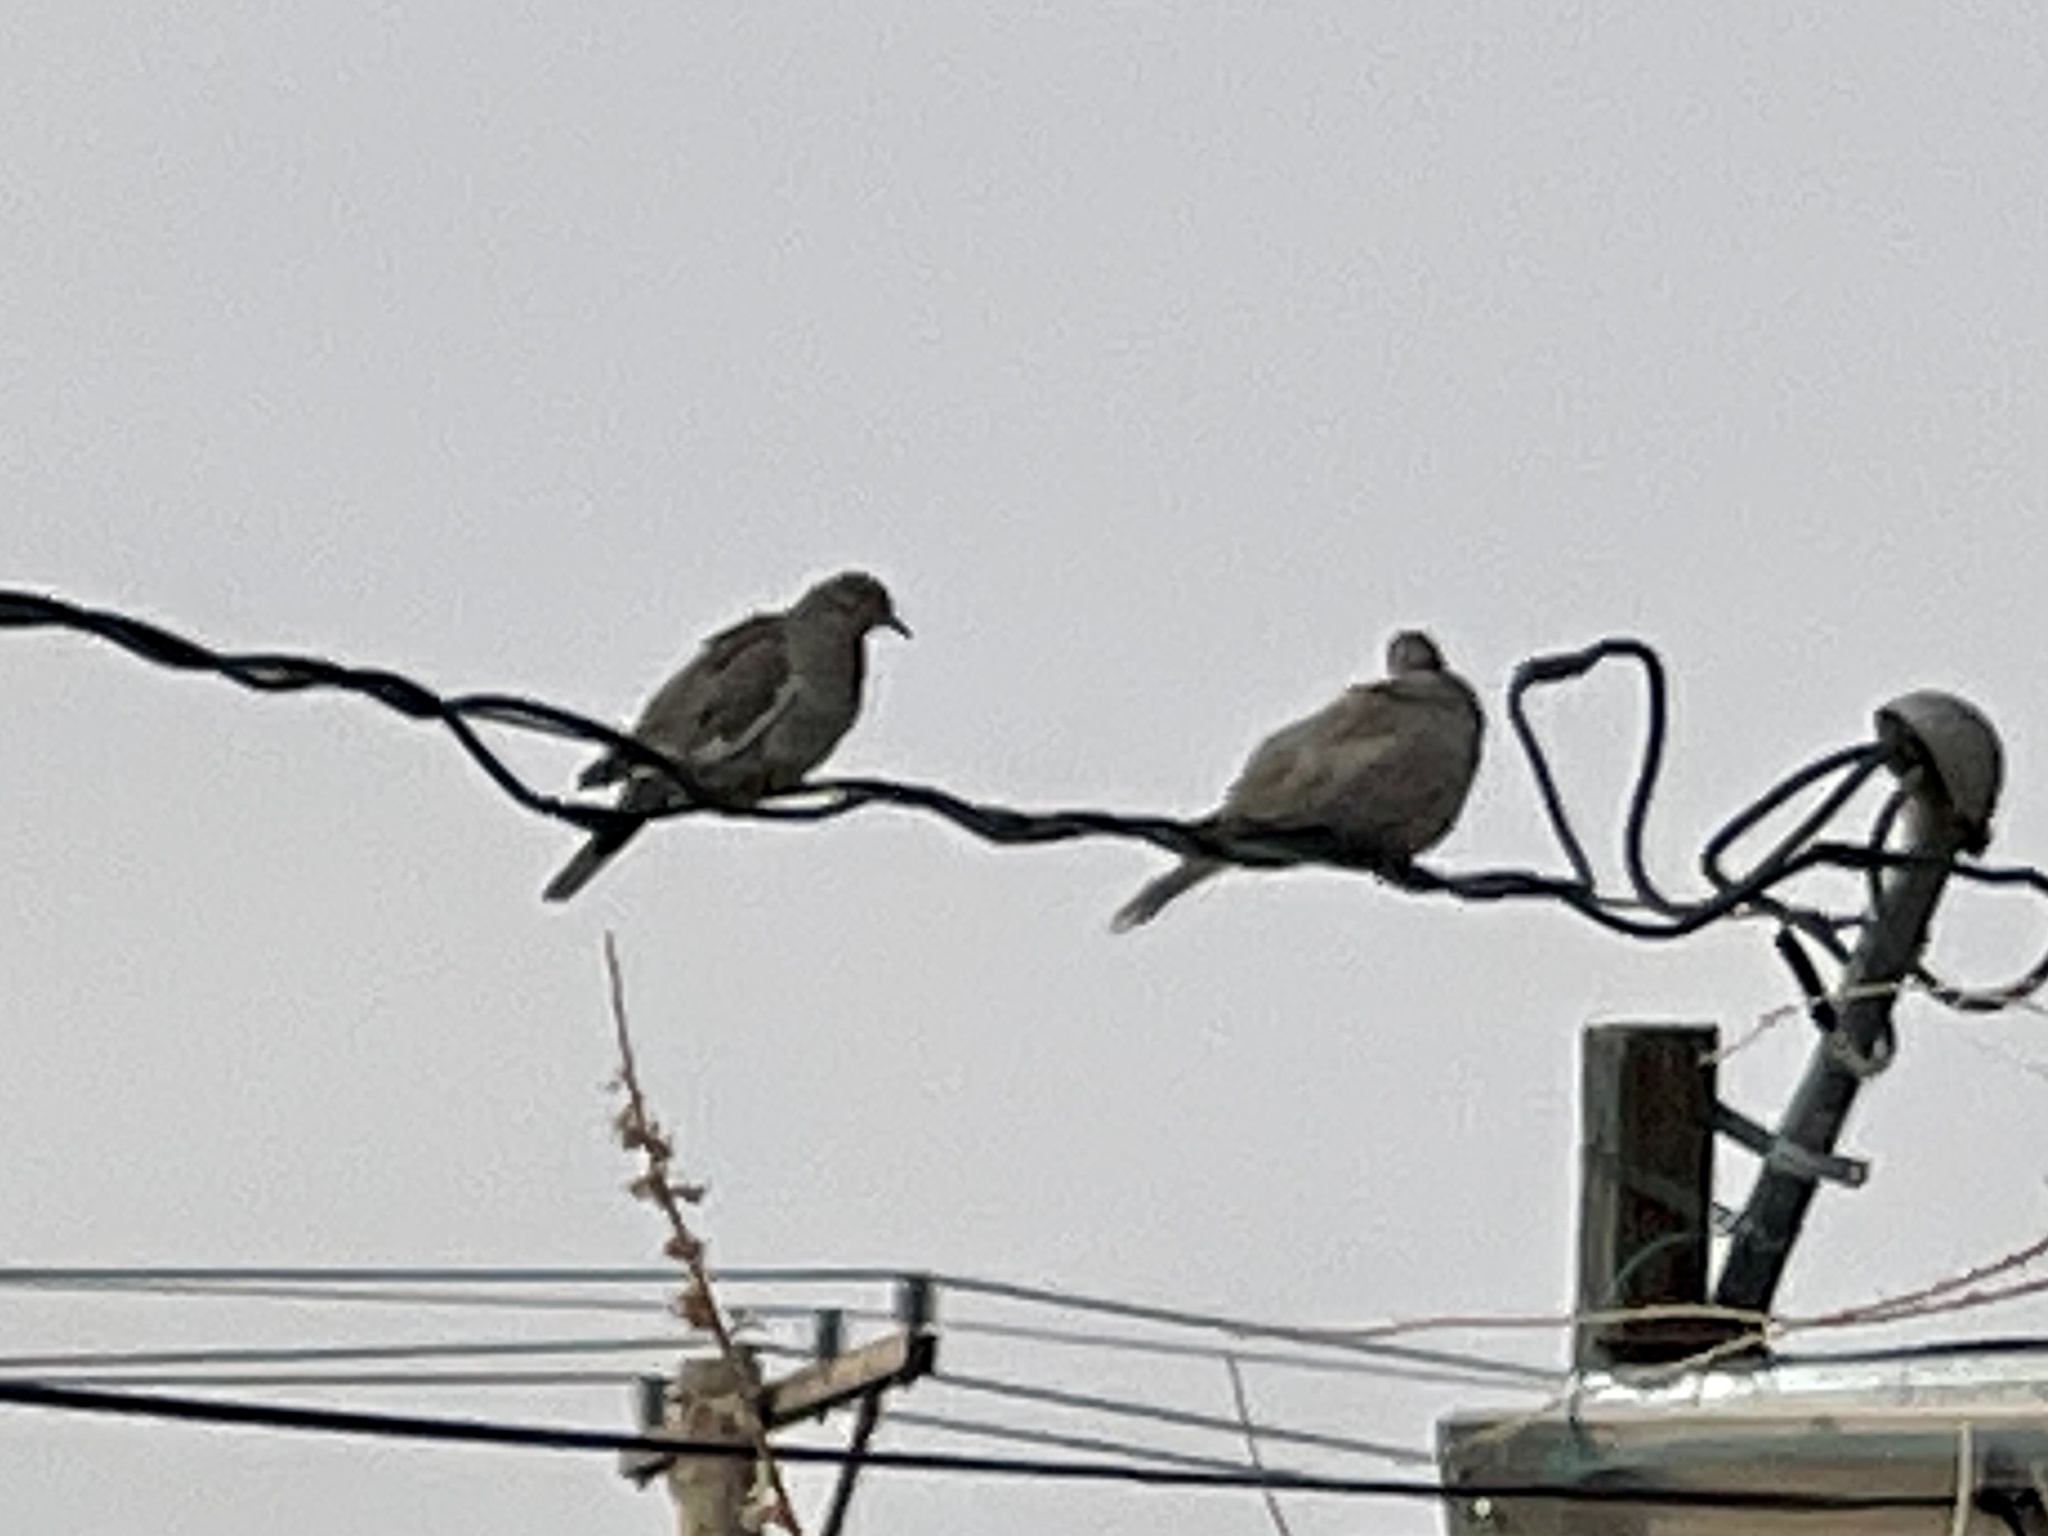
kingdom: Animalia
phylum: Chordata
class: Aves
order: Columbiformes
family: Columbidae
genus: Zenaida
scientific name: Zenaida asiatica
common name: White-winged dove
